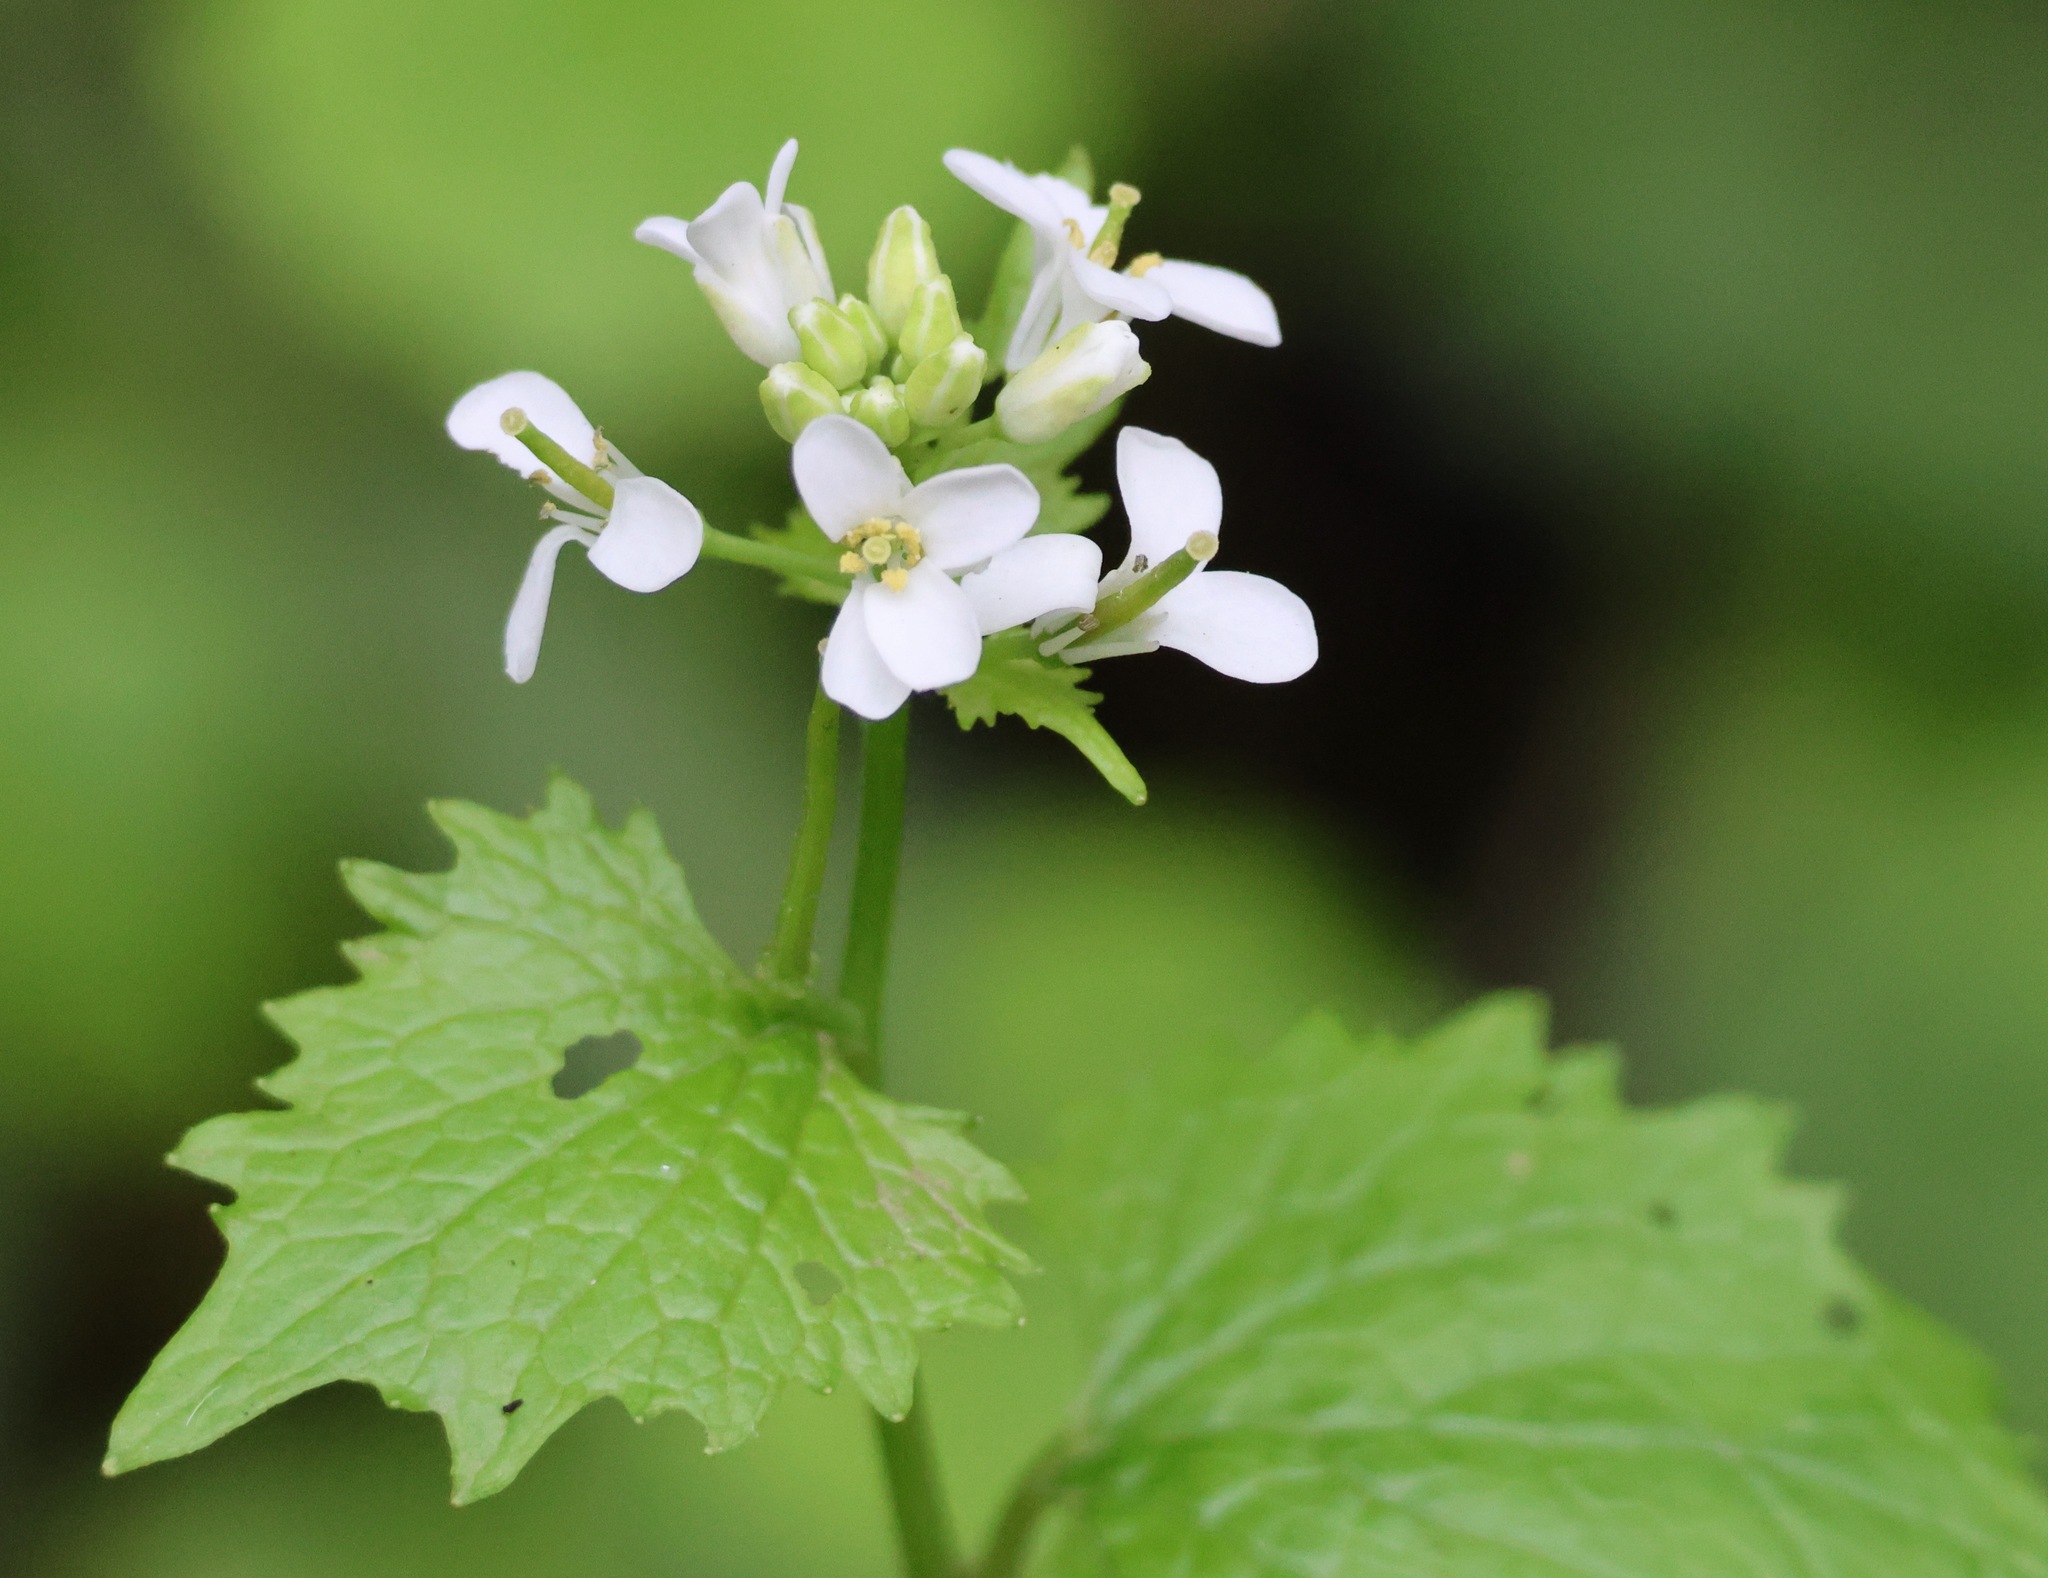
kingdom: Plantae
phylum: Tracheophyta
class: Magnoliopsida
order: Brassicales
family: Brassicaceae
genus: Alliaria
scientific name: Alliaria petiolata
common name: Garlic mustard
